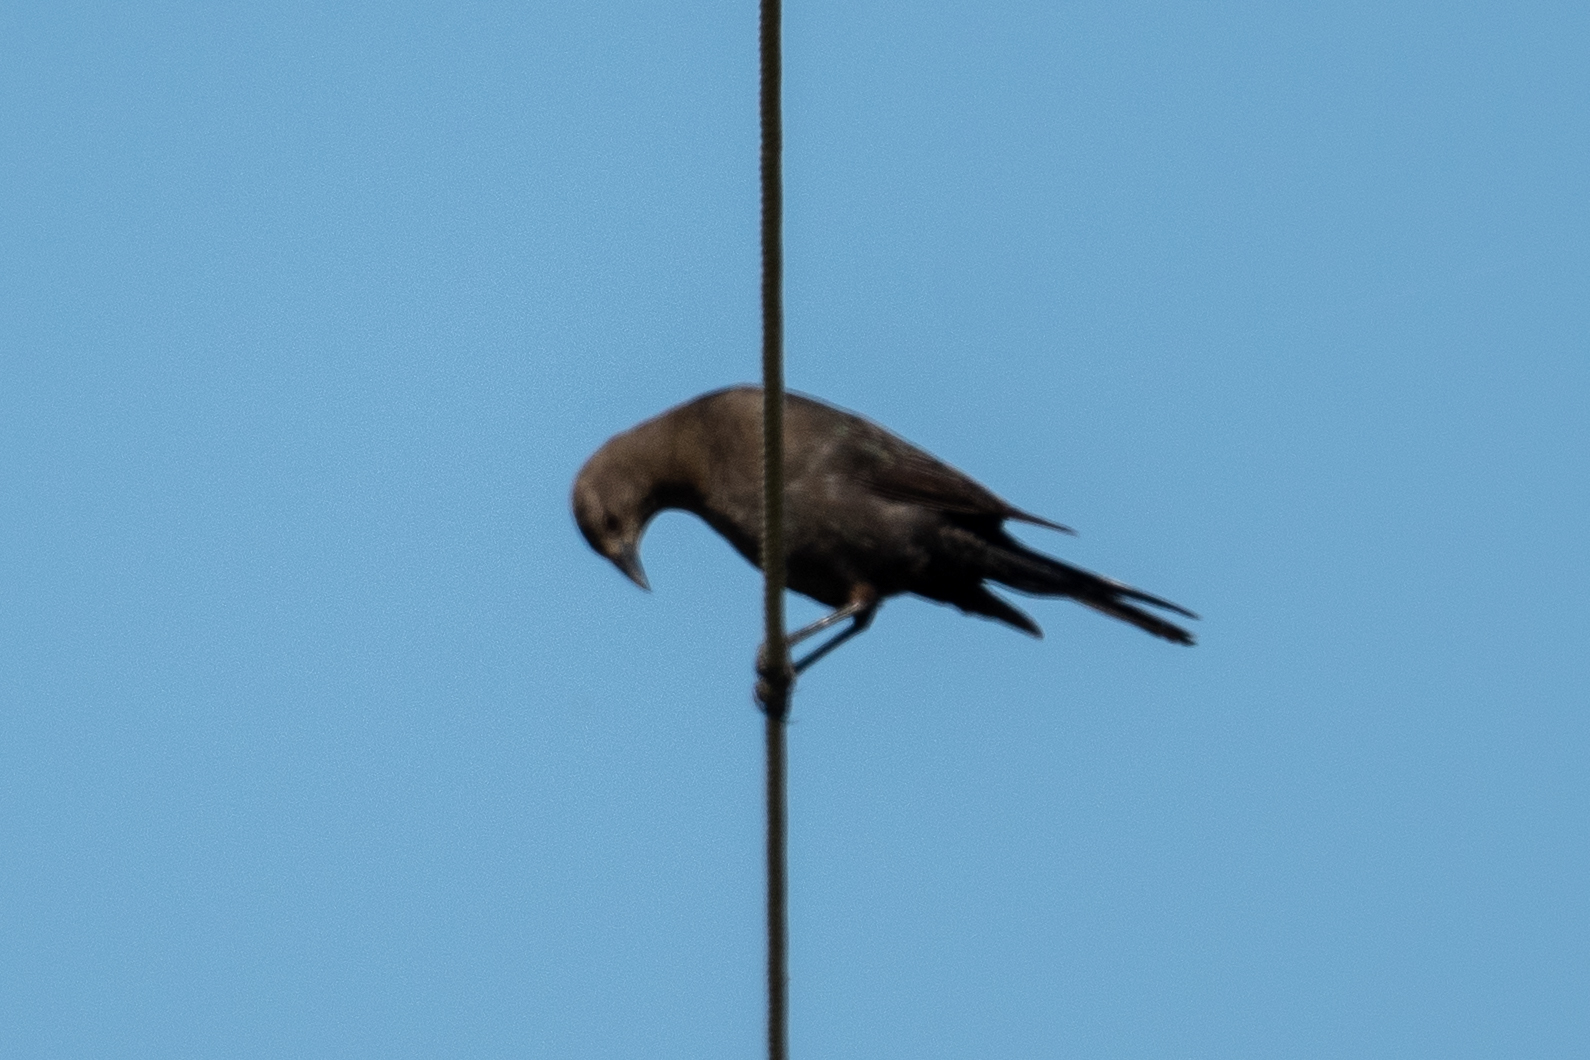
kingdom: Animalia
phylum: Chordata
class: Aves
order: Passeriformes
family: Icteridae
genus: Euphagus
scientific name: Euphagus cyanocephalus
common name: Brewer's blackbird
